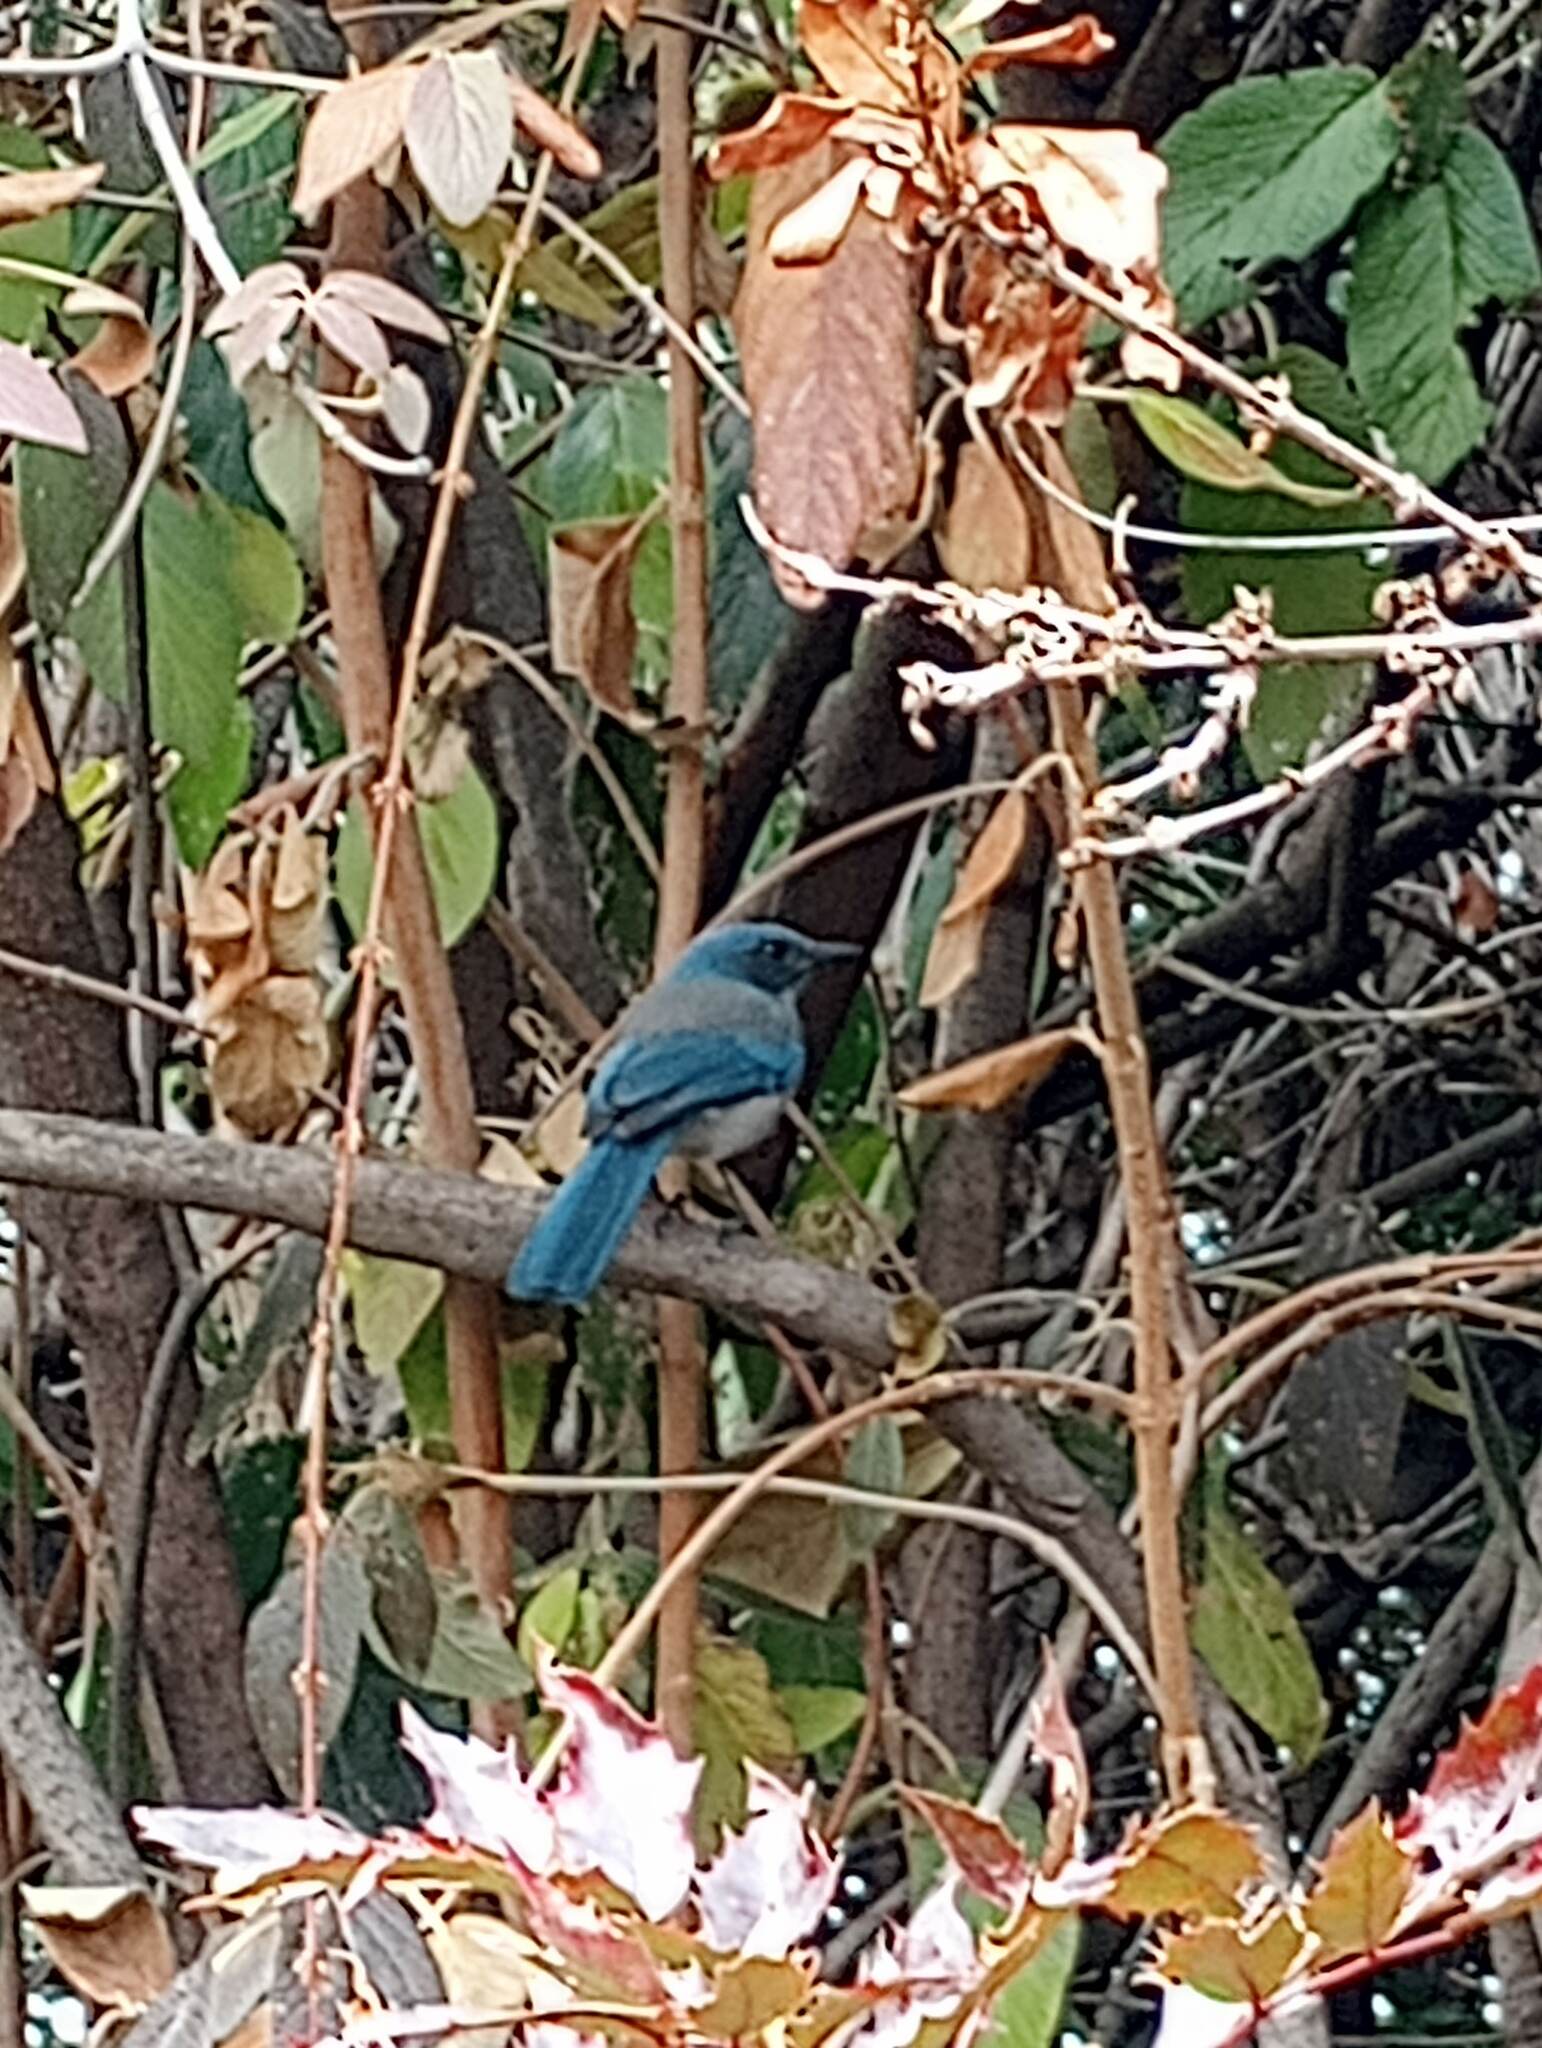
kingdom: Animalia
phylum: Chordata
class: Aves
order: Passeriformes
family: Corvidae
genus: Aphelocoma
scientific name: Aphelocoma woodhouseii
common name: Woodhouse's scrub-jay
